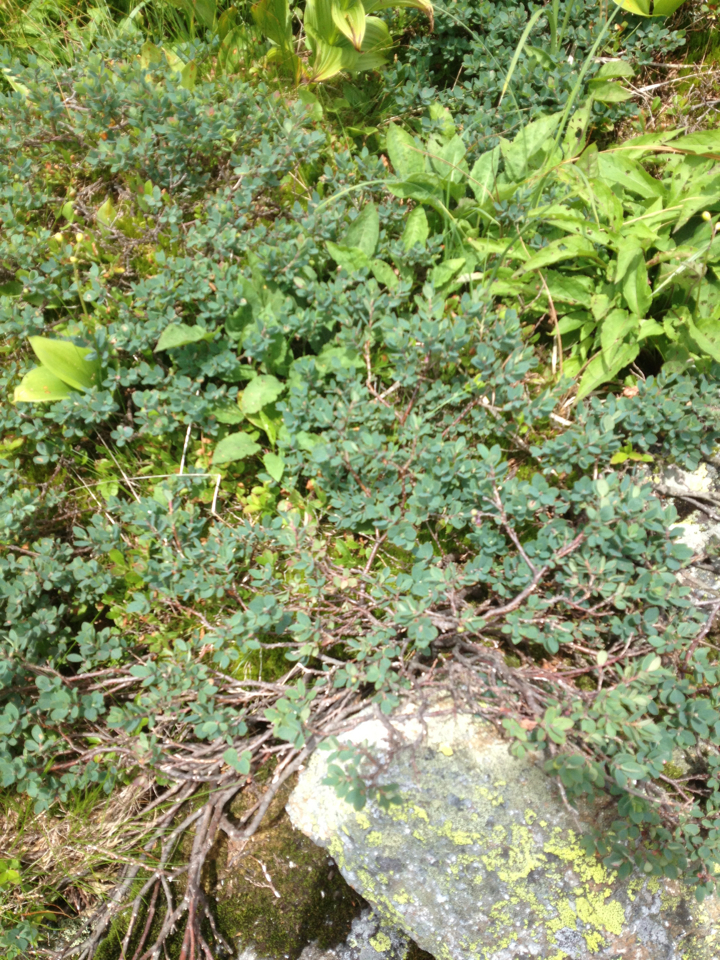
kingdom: Plantae
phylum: Tracheophyta
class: Magnoliopsida
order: Ericales
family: Ericaceae
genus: Vaccinium
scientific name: Vaccinium uliginosum
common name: Bog bilberry
